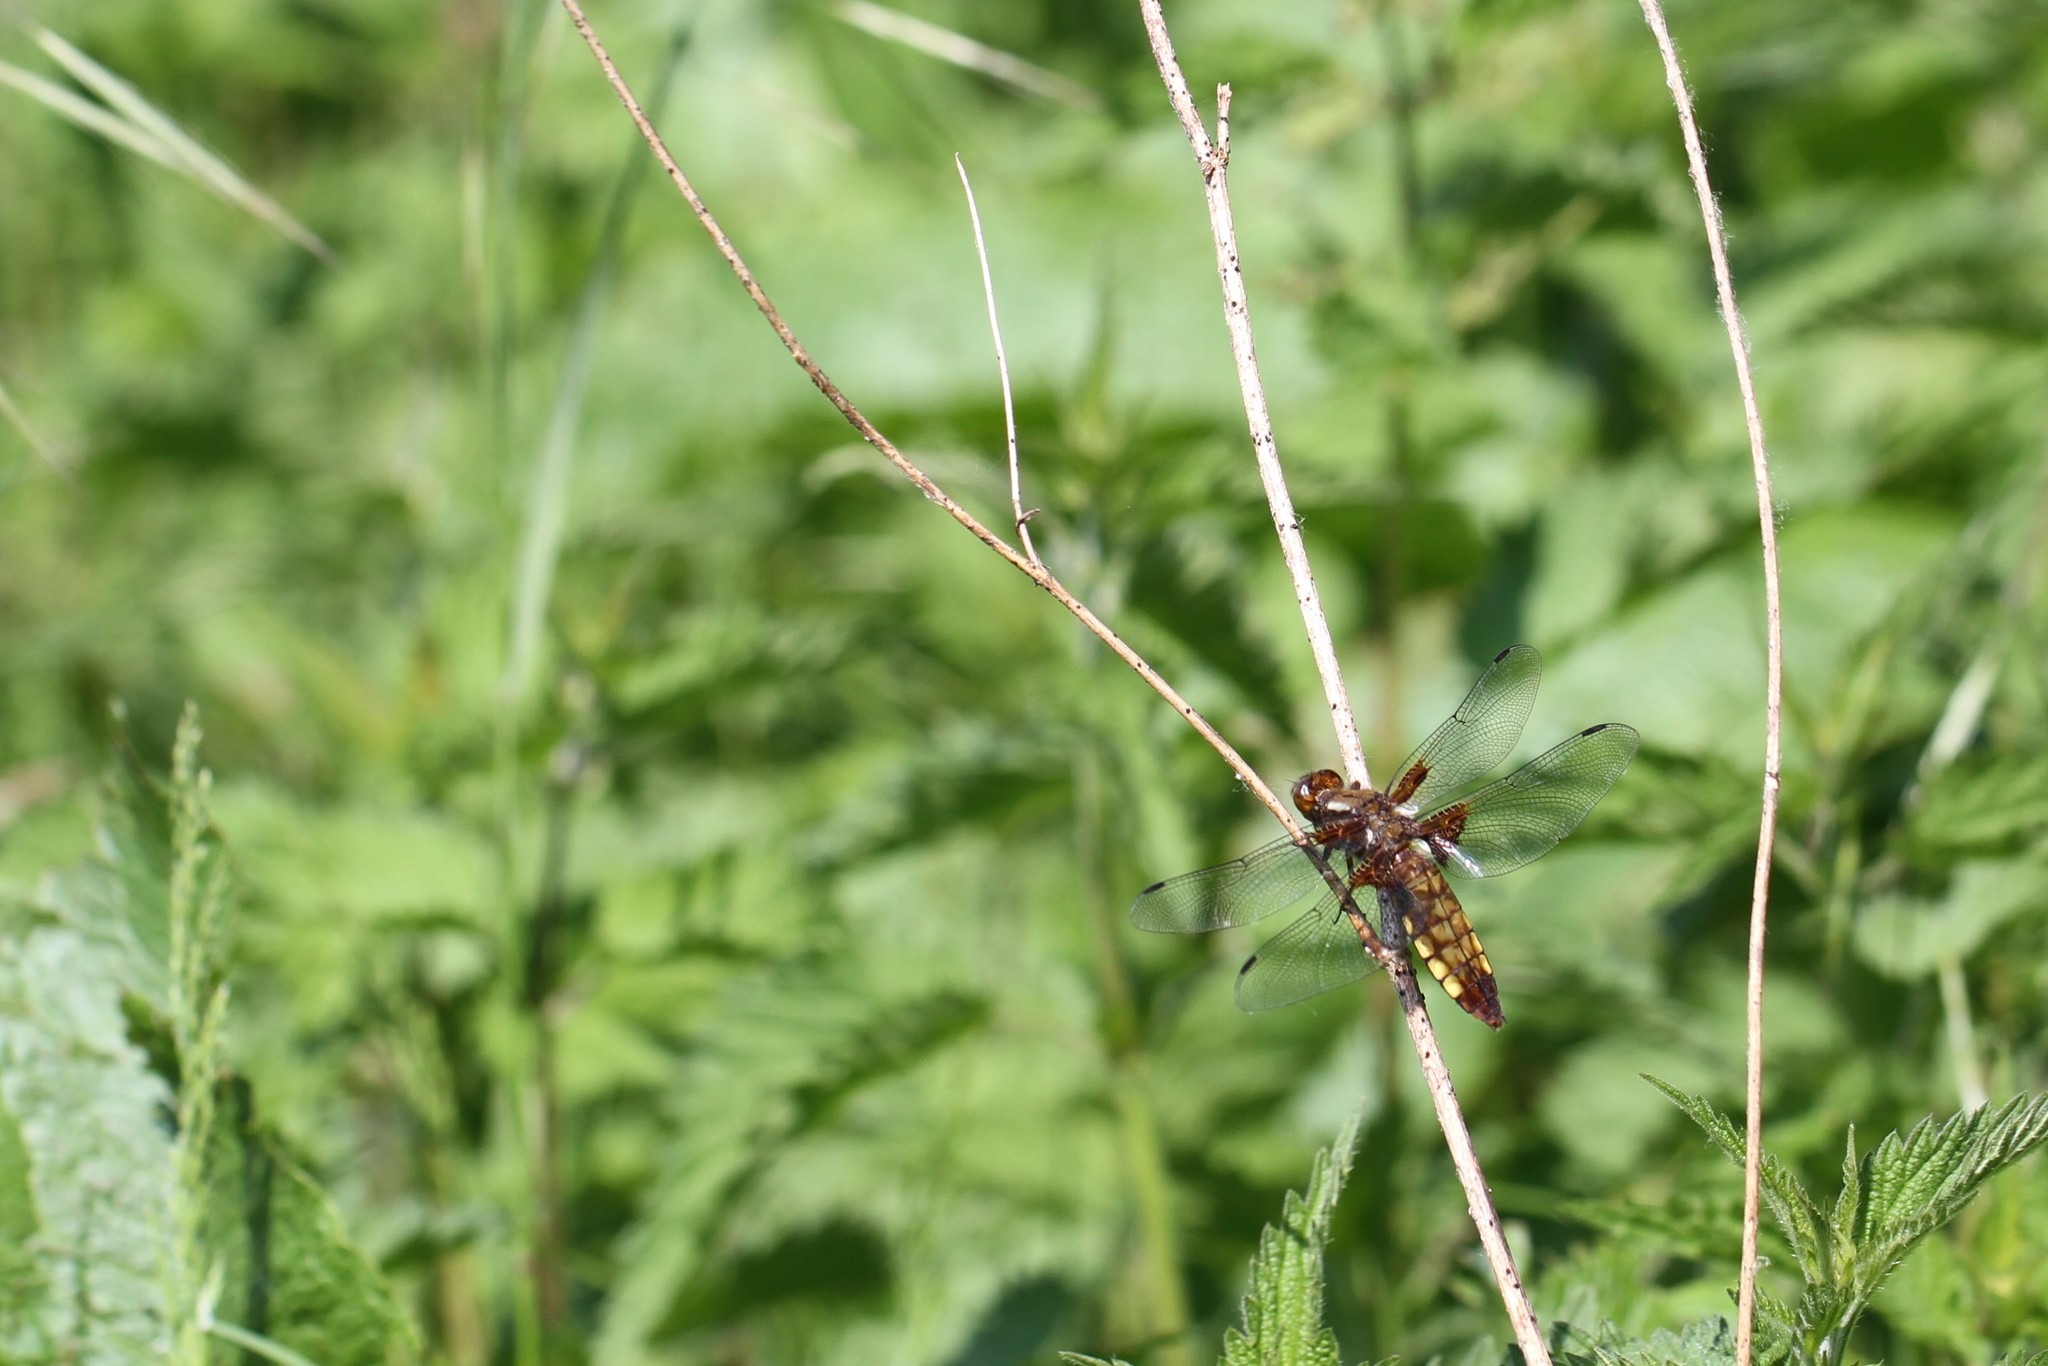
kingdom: Animalia
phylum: Arthropoda
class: Insecta
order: Odonata
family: Libellulidae
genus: Libellula
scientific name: Libellula depressa
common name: Broad-bodied chaser
